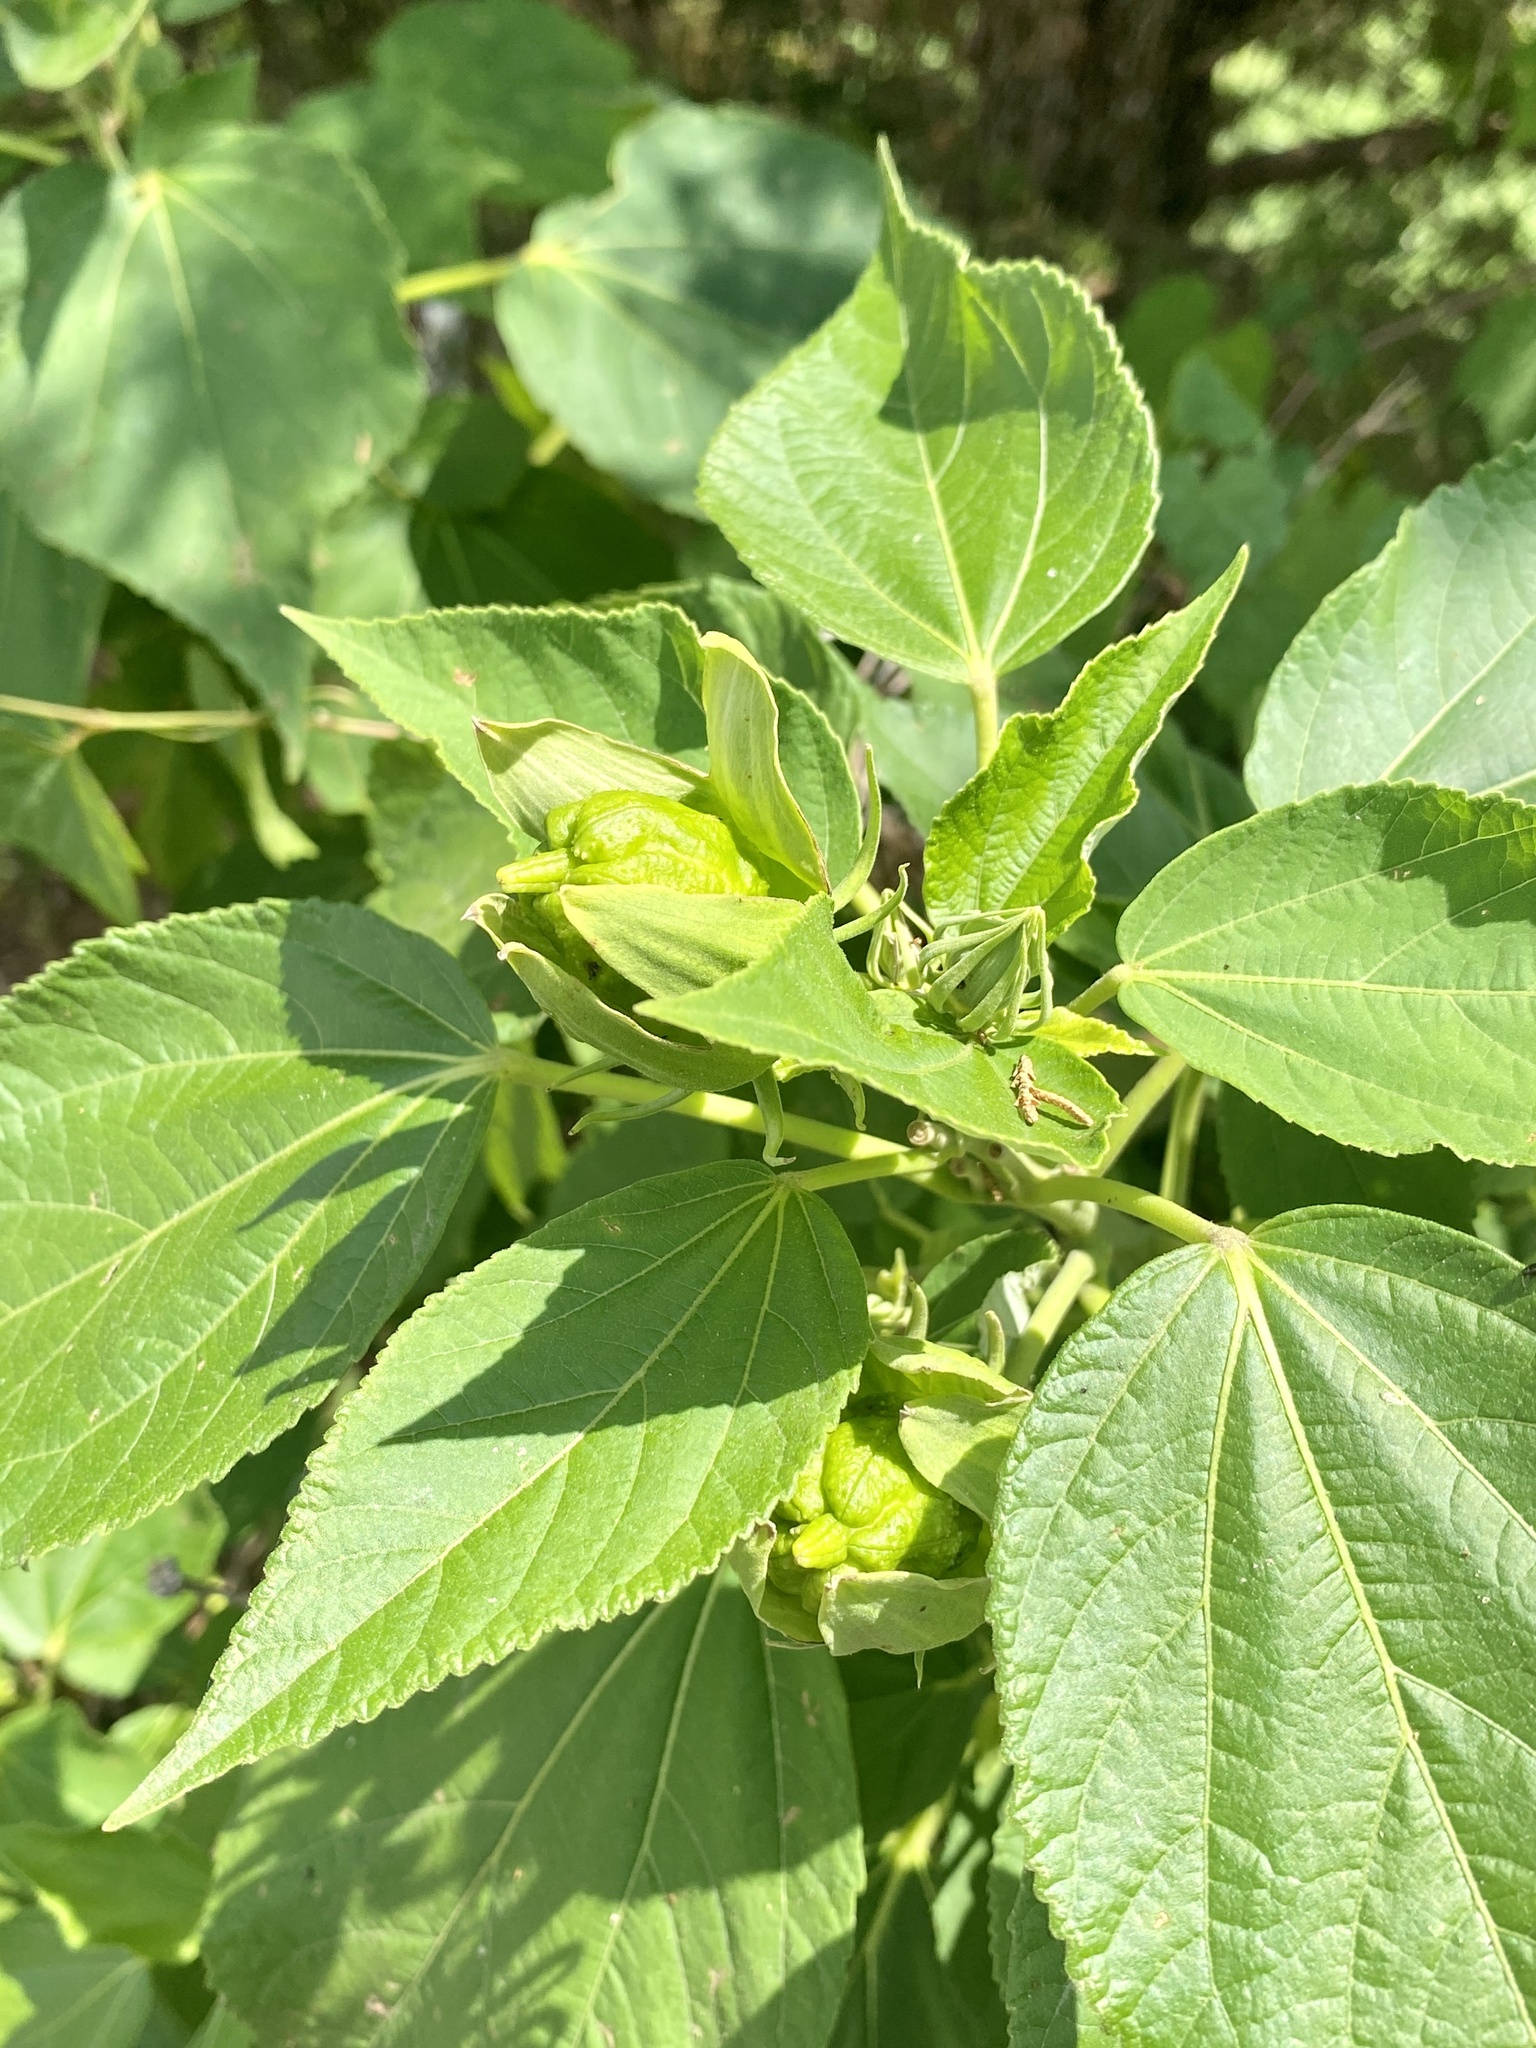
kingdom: Plantae
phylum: Tracheophyta
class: Magnoliopsida
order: Malvales
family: Malvaceae
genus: Hibiscus
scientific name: Hibiscus moscheutos
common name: Common rose-mallow
